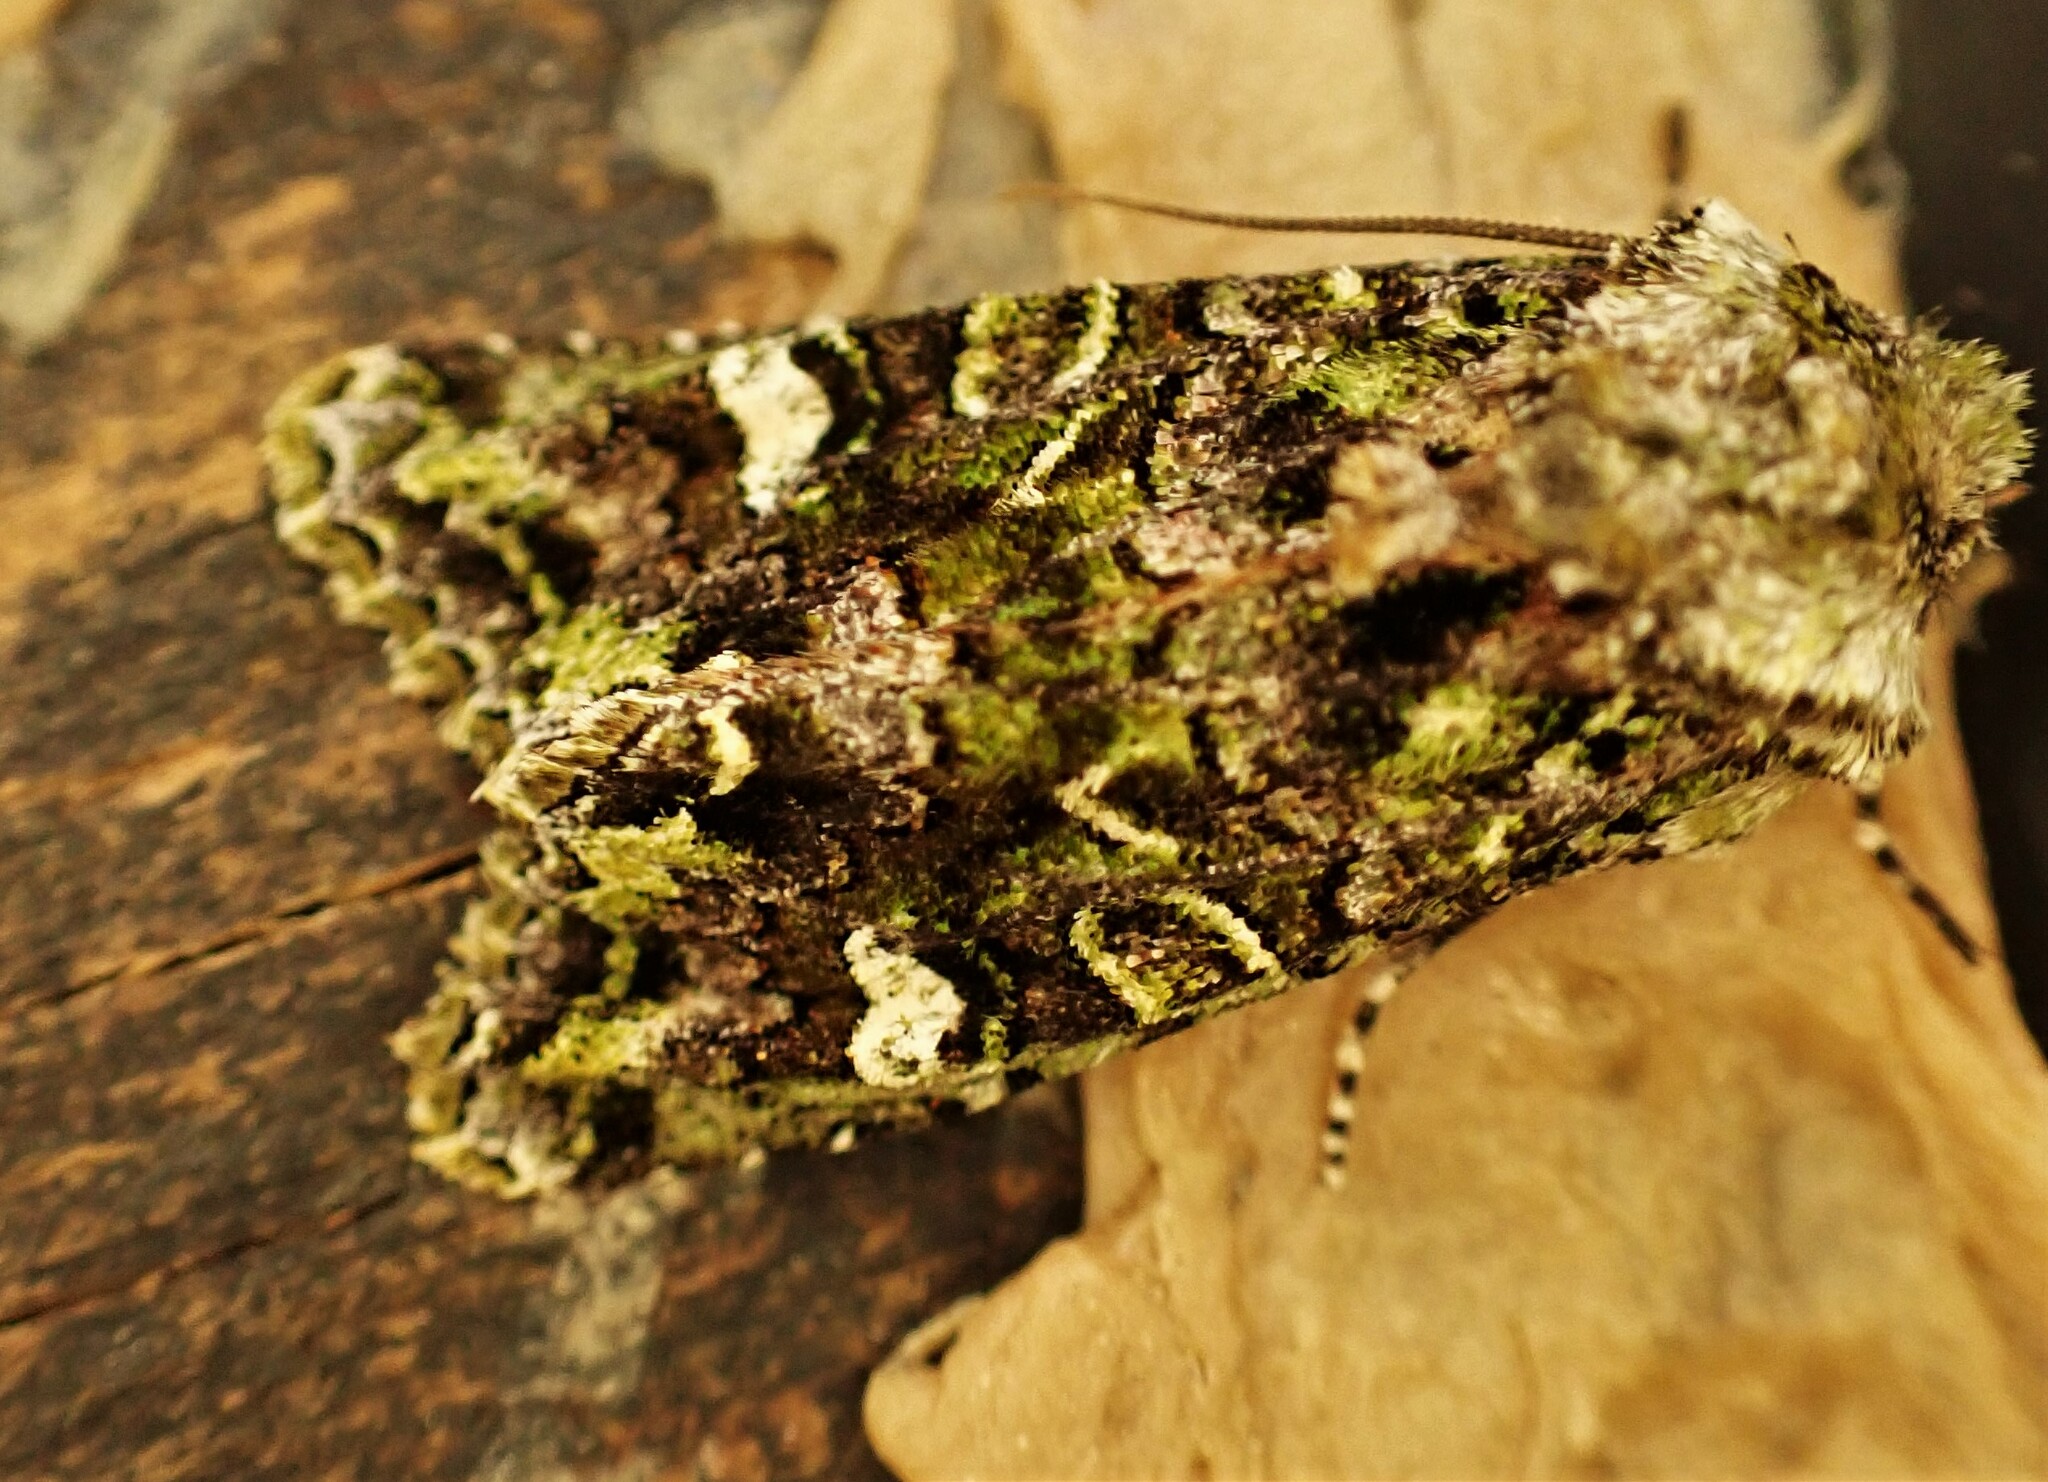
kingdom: Animalia
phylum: Arthropoda
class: Insecta
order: Lepidoptera
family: Noctuidae
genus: Ichneutica
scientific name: Ichneutica
